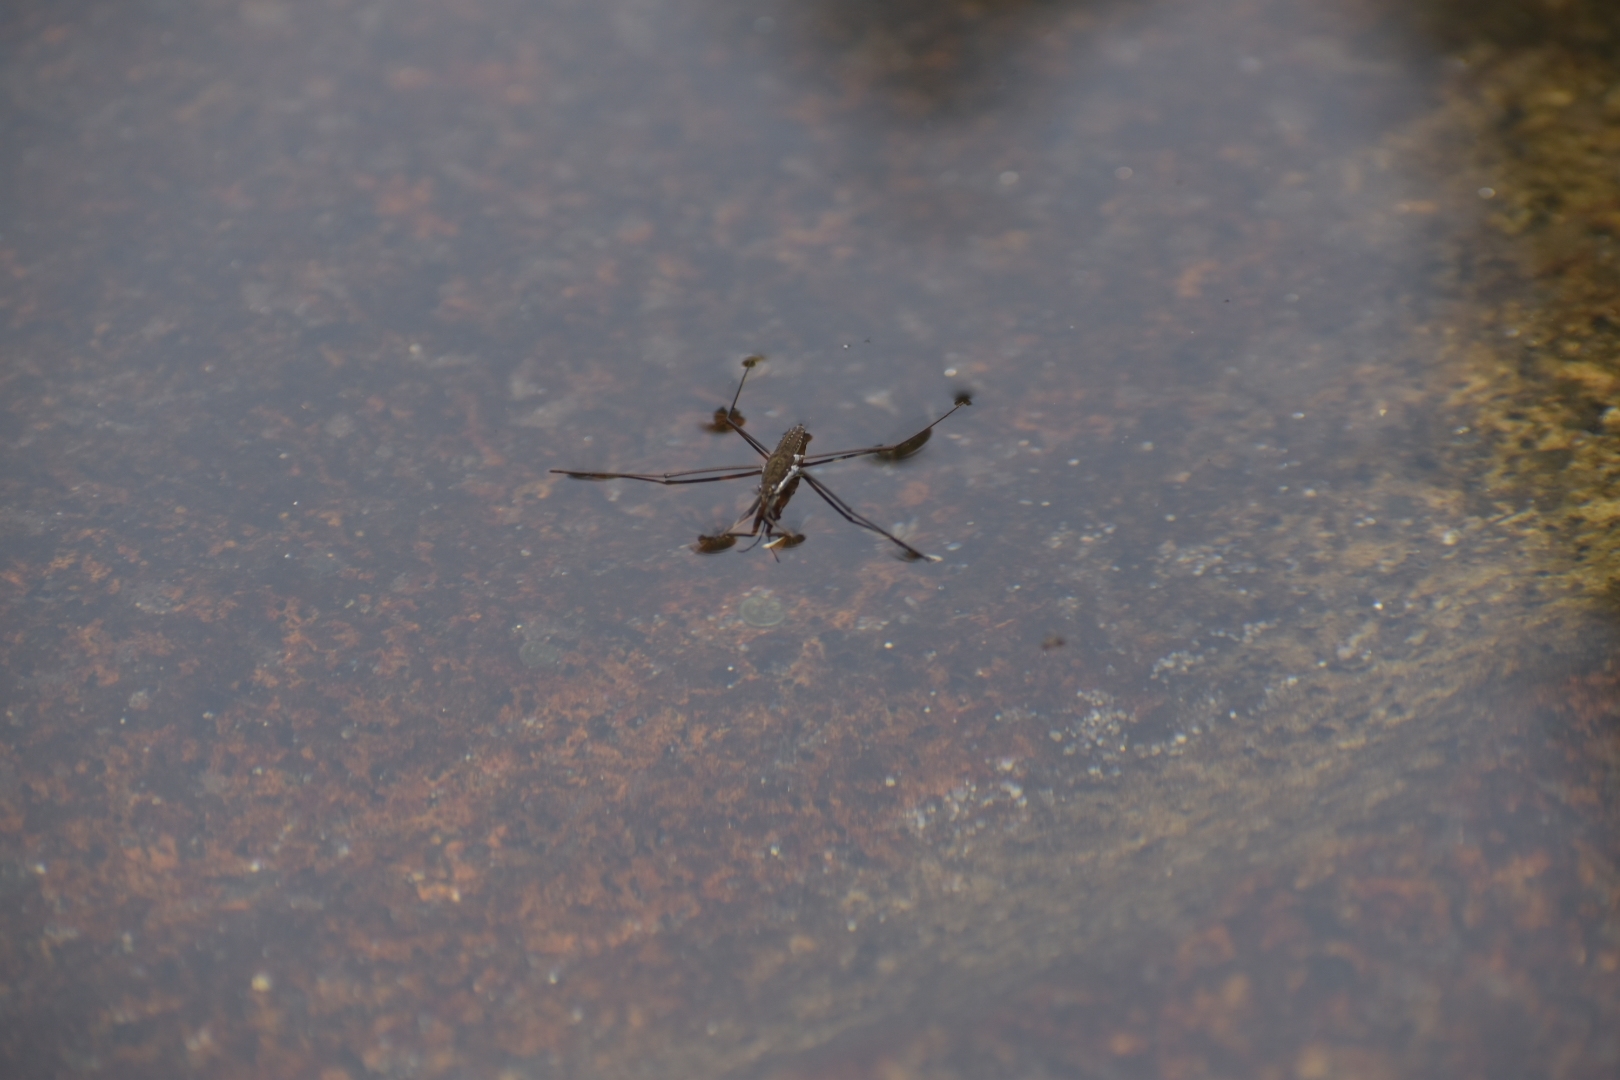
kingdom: Animalia
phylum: Arthropoda
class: Insecta
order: Hemiptera
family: Gerridae
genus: Aquarius
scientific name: Aquarius remigis
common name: Common water strider
